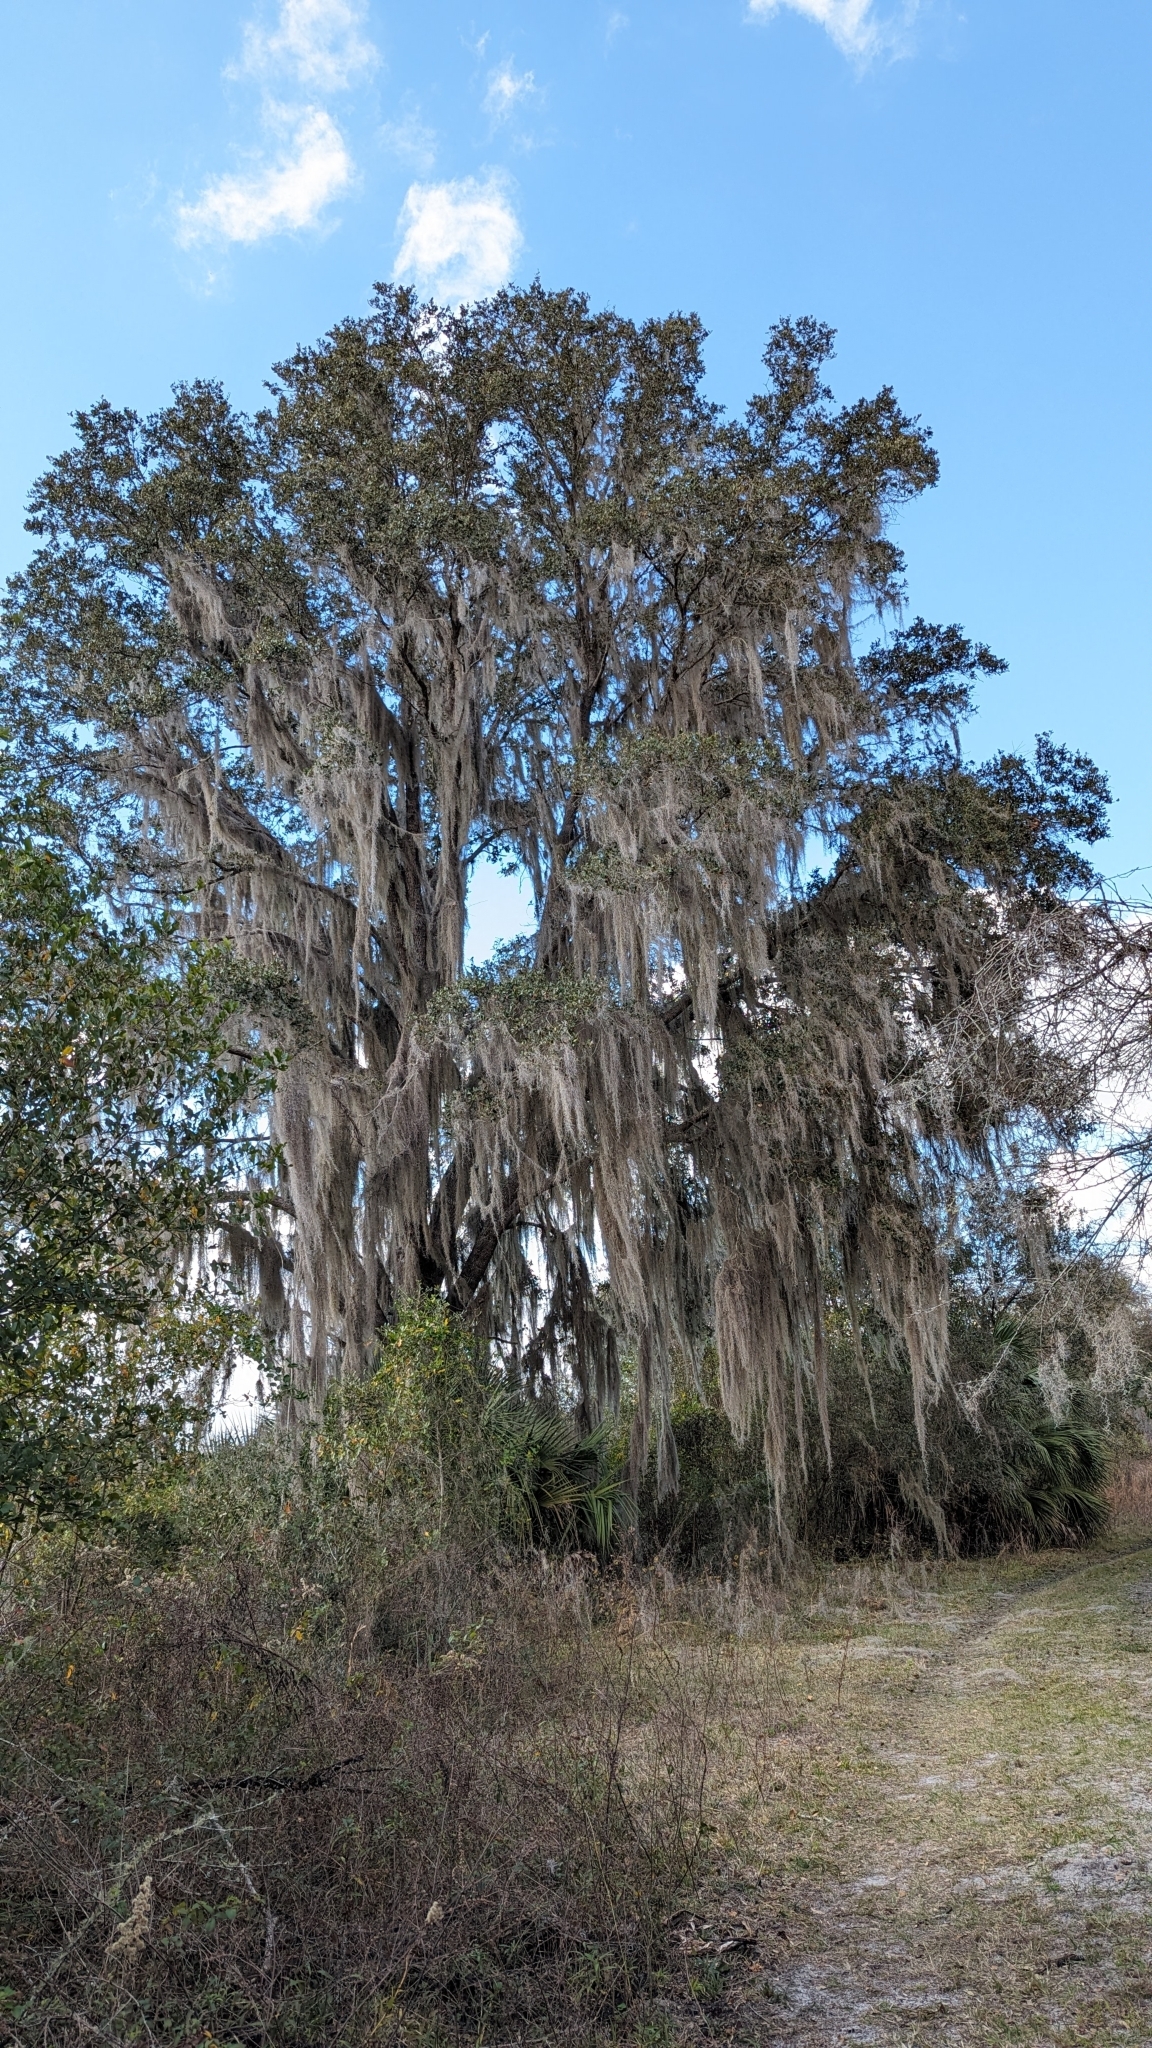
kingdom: Plantae
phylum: Tracheophyta
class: Liliopsida
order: Poales
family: Bromeliaceae
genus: Tillandsia
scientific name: Tillandsia usneoides
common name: Spanish moss
